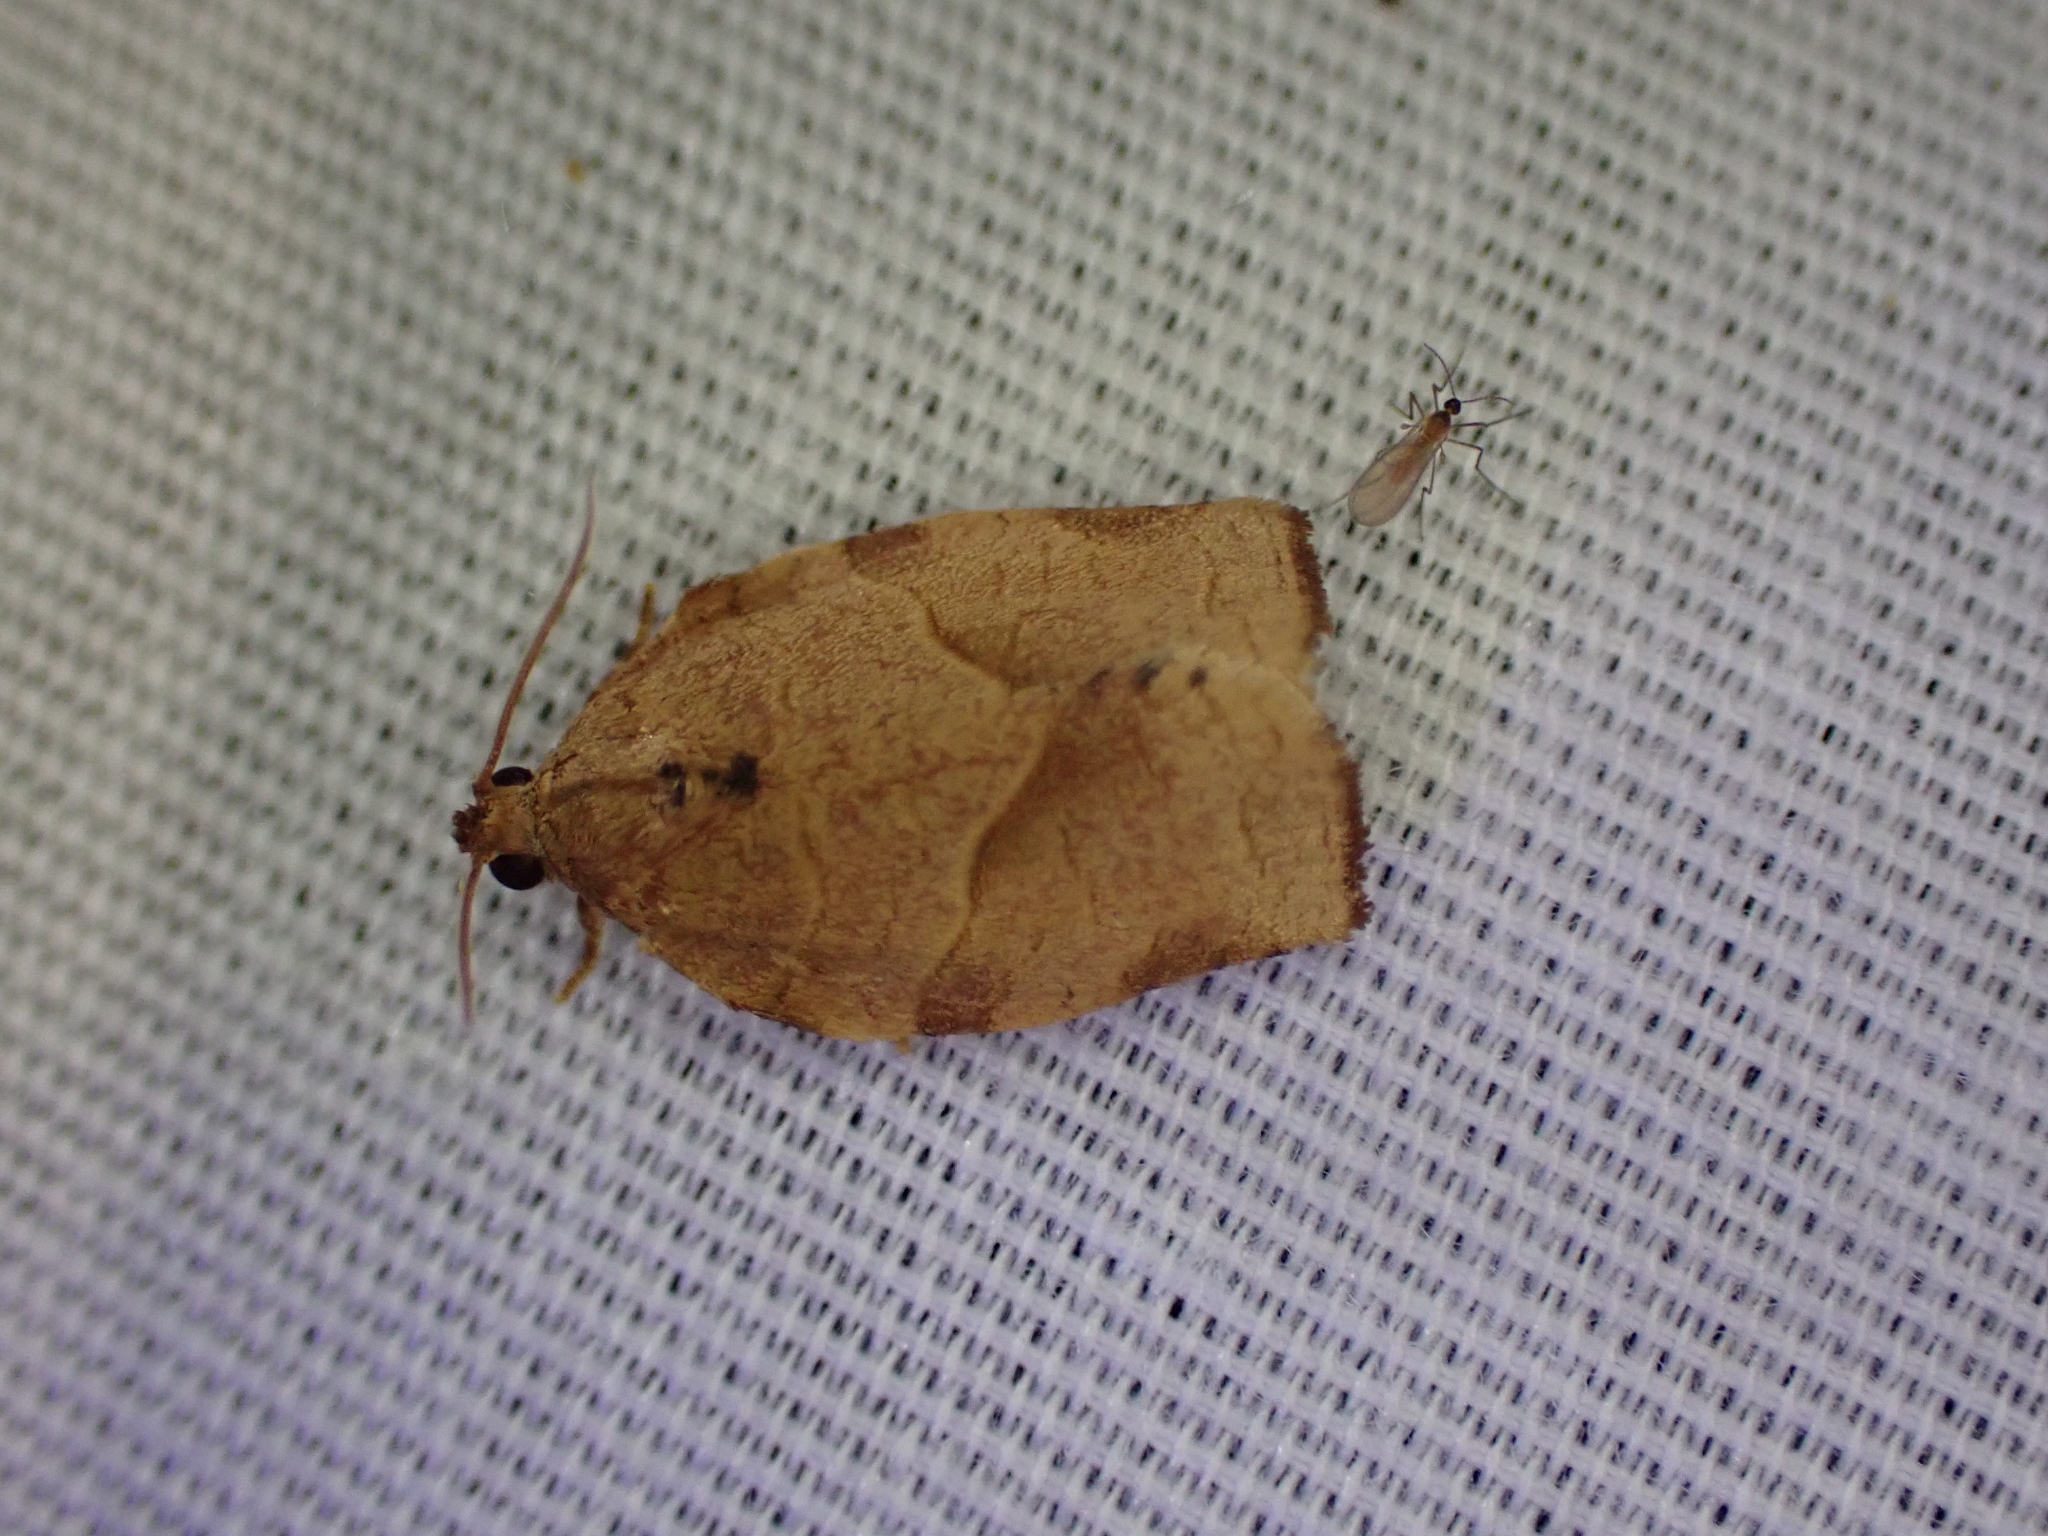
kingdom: Animalia
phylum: Arthropoda
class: Insecta
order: Lepidoptera
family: Tortricidae
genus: Choristoneura
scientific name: Choristoneura rosaceana
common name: Oblique-banded leafroller moth
